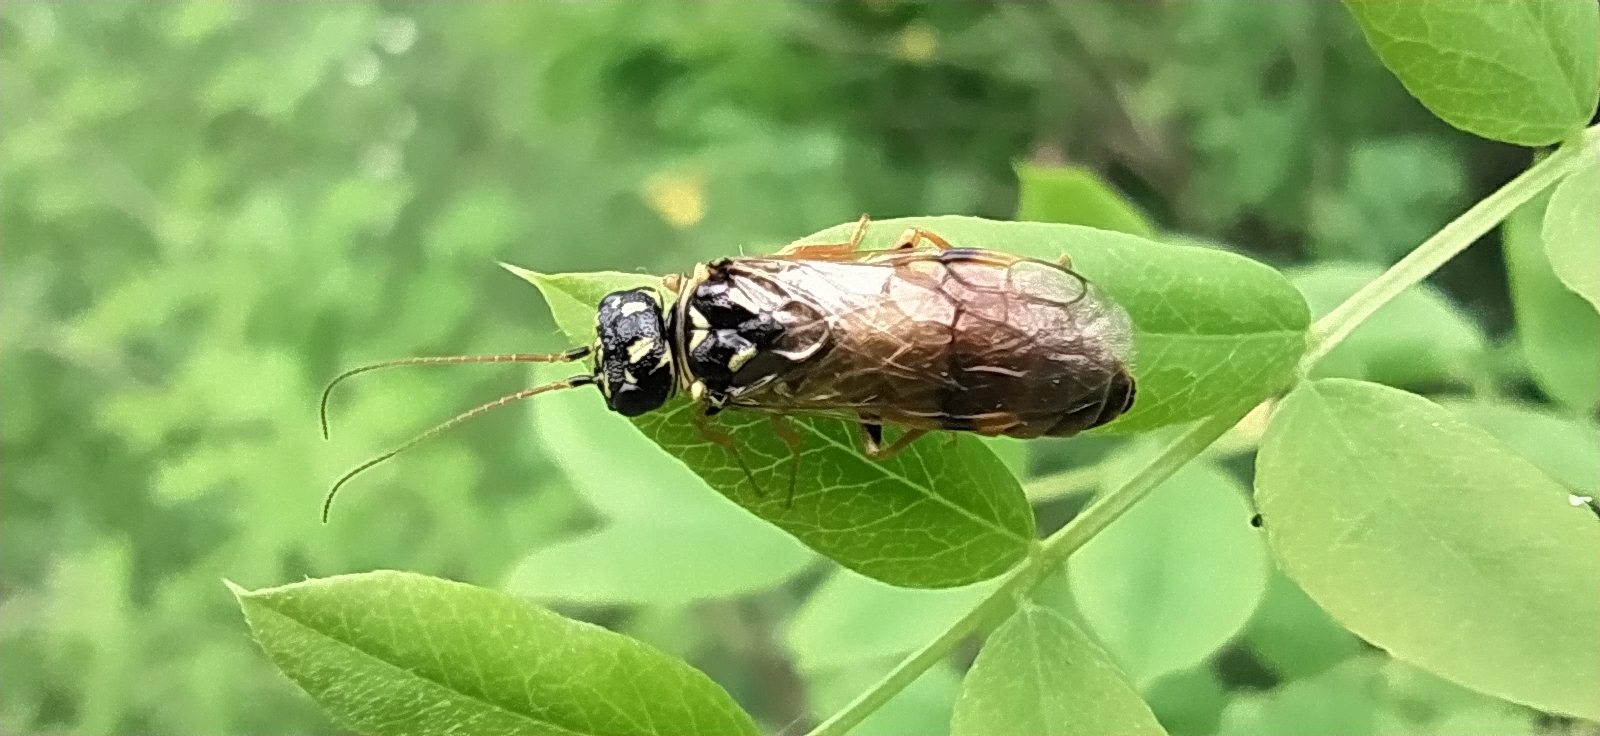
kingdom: Animalia
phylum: Arthropoda
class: Insecta
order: Hymenoptera
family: Pamphiliidae
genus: Acantholyda
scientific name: Acantholyda laricis
